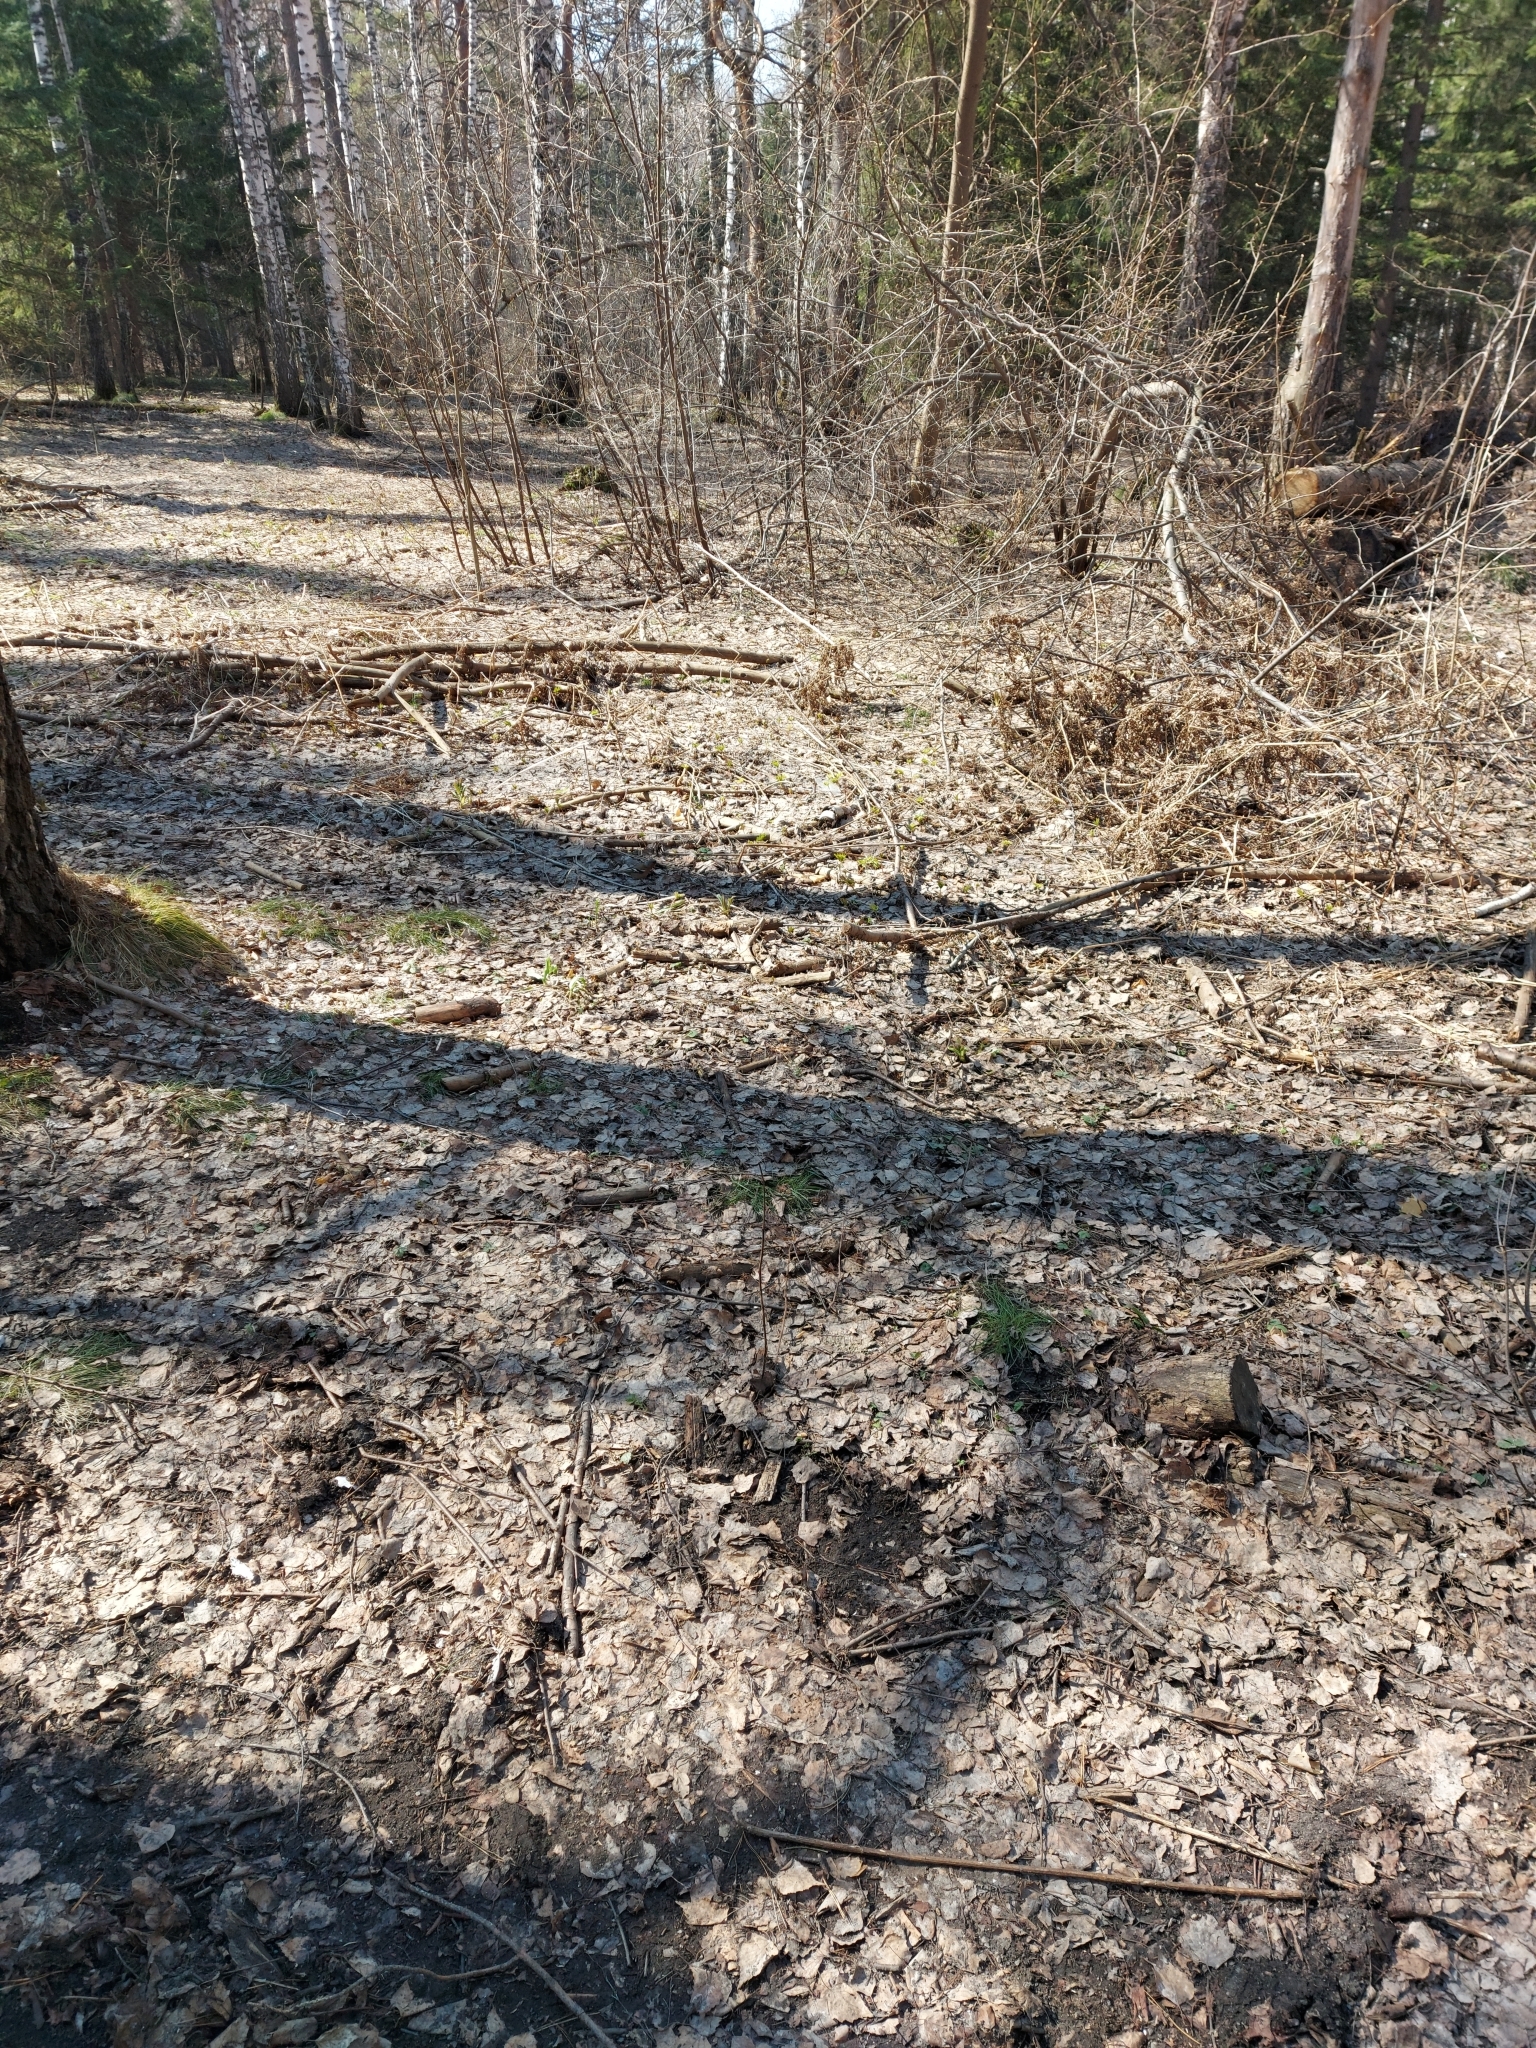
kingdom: Animalia
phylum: Chordata
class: Aves
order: Passeriformes
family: Fringillidae
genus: Fringilla
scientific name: Fringilla coelebs
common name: Common chaffinch
